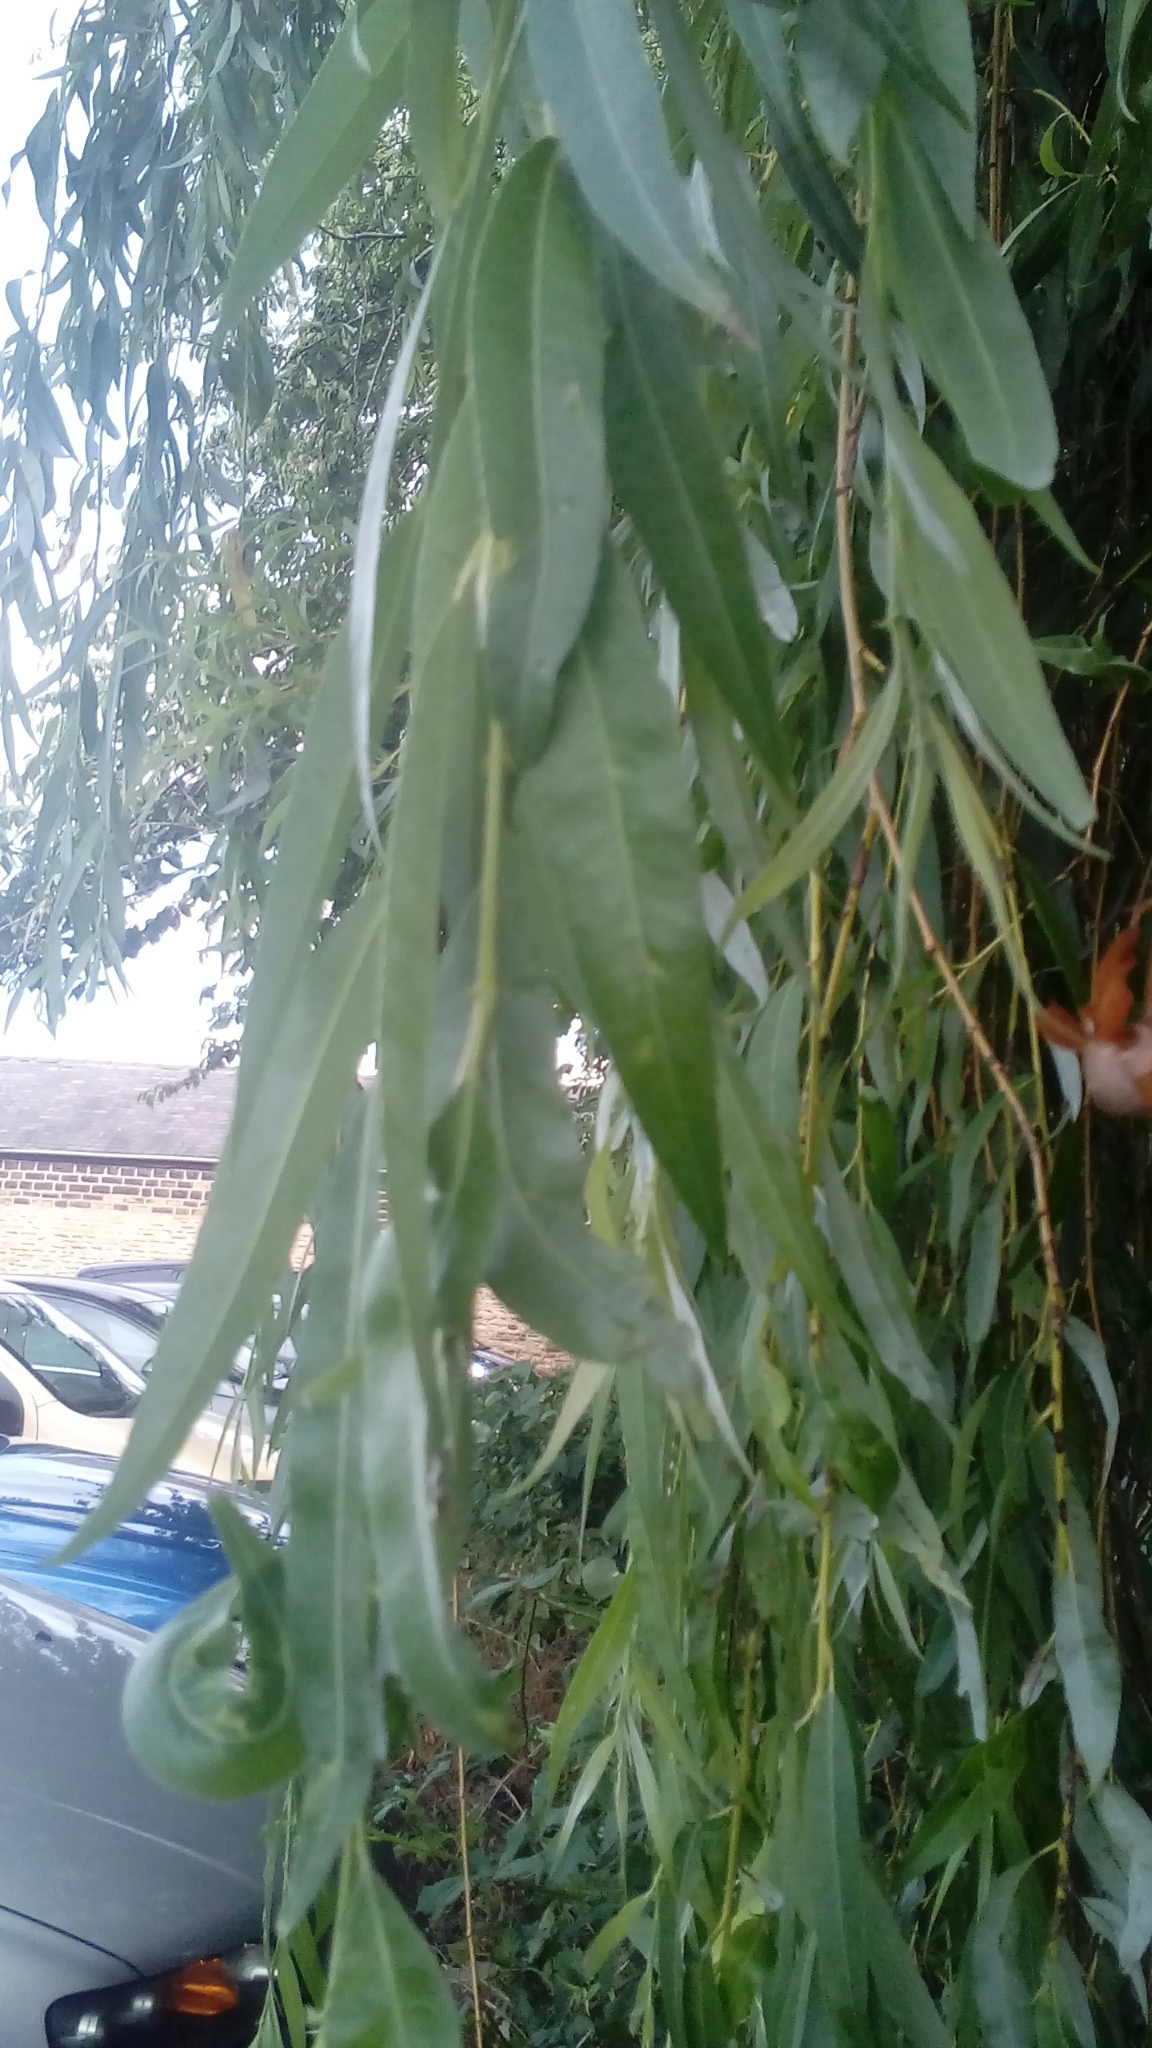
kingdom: Plantae
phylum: Tracheophyta
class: Magnoliopsida
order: Malpighiales
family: Salicaceae
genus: Salix
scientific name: Salix pendulina
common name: Wisconsin weeping willow
